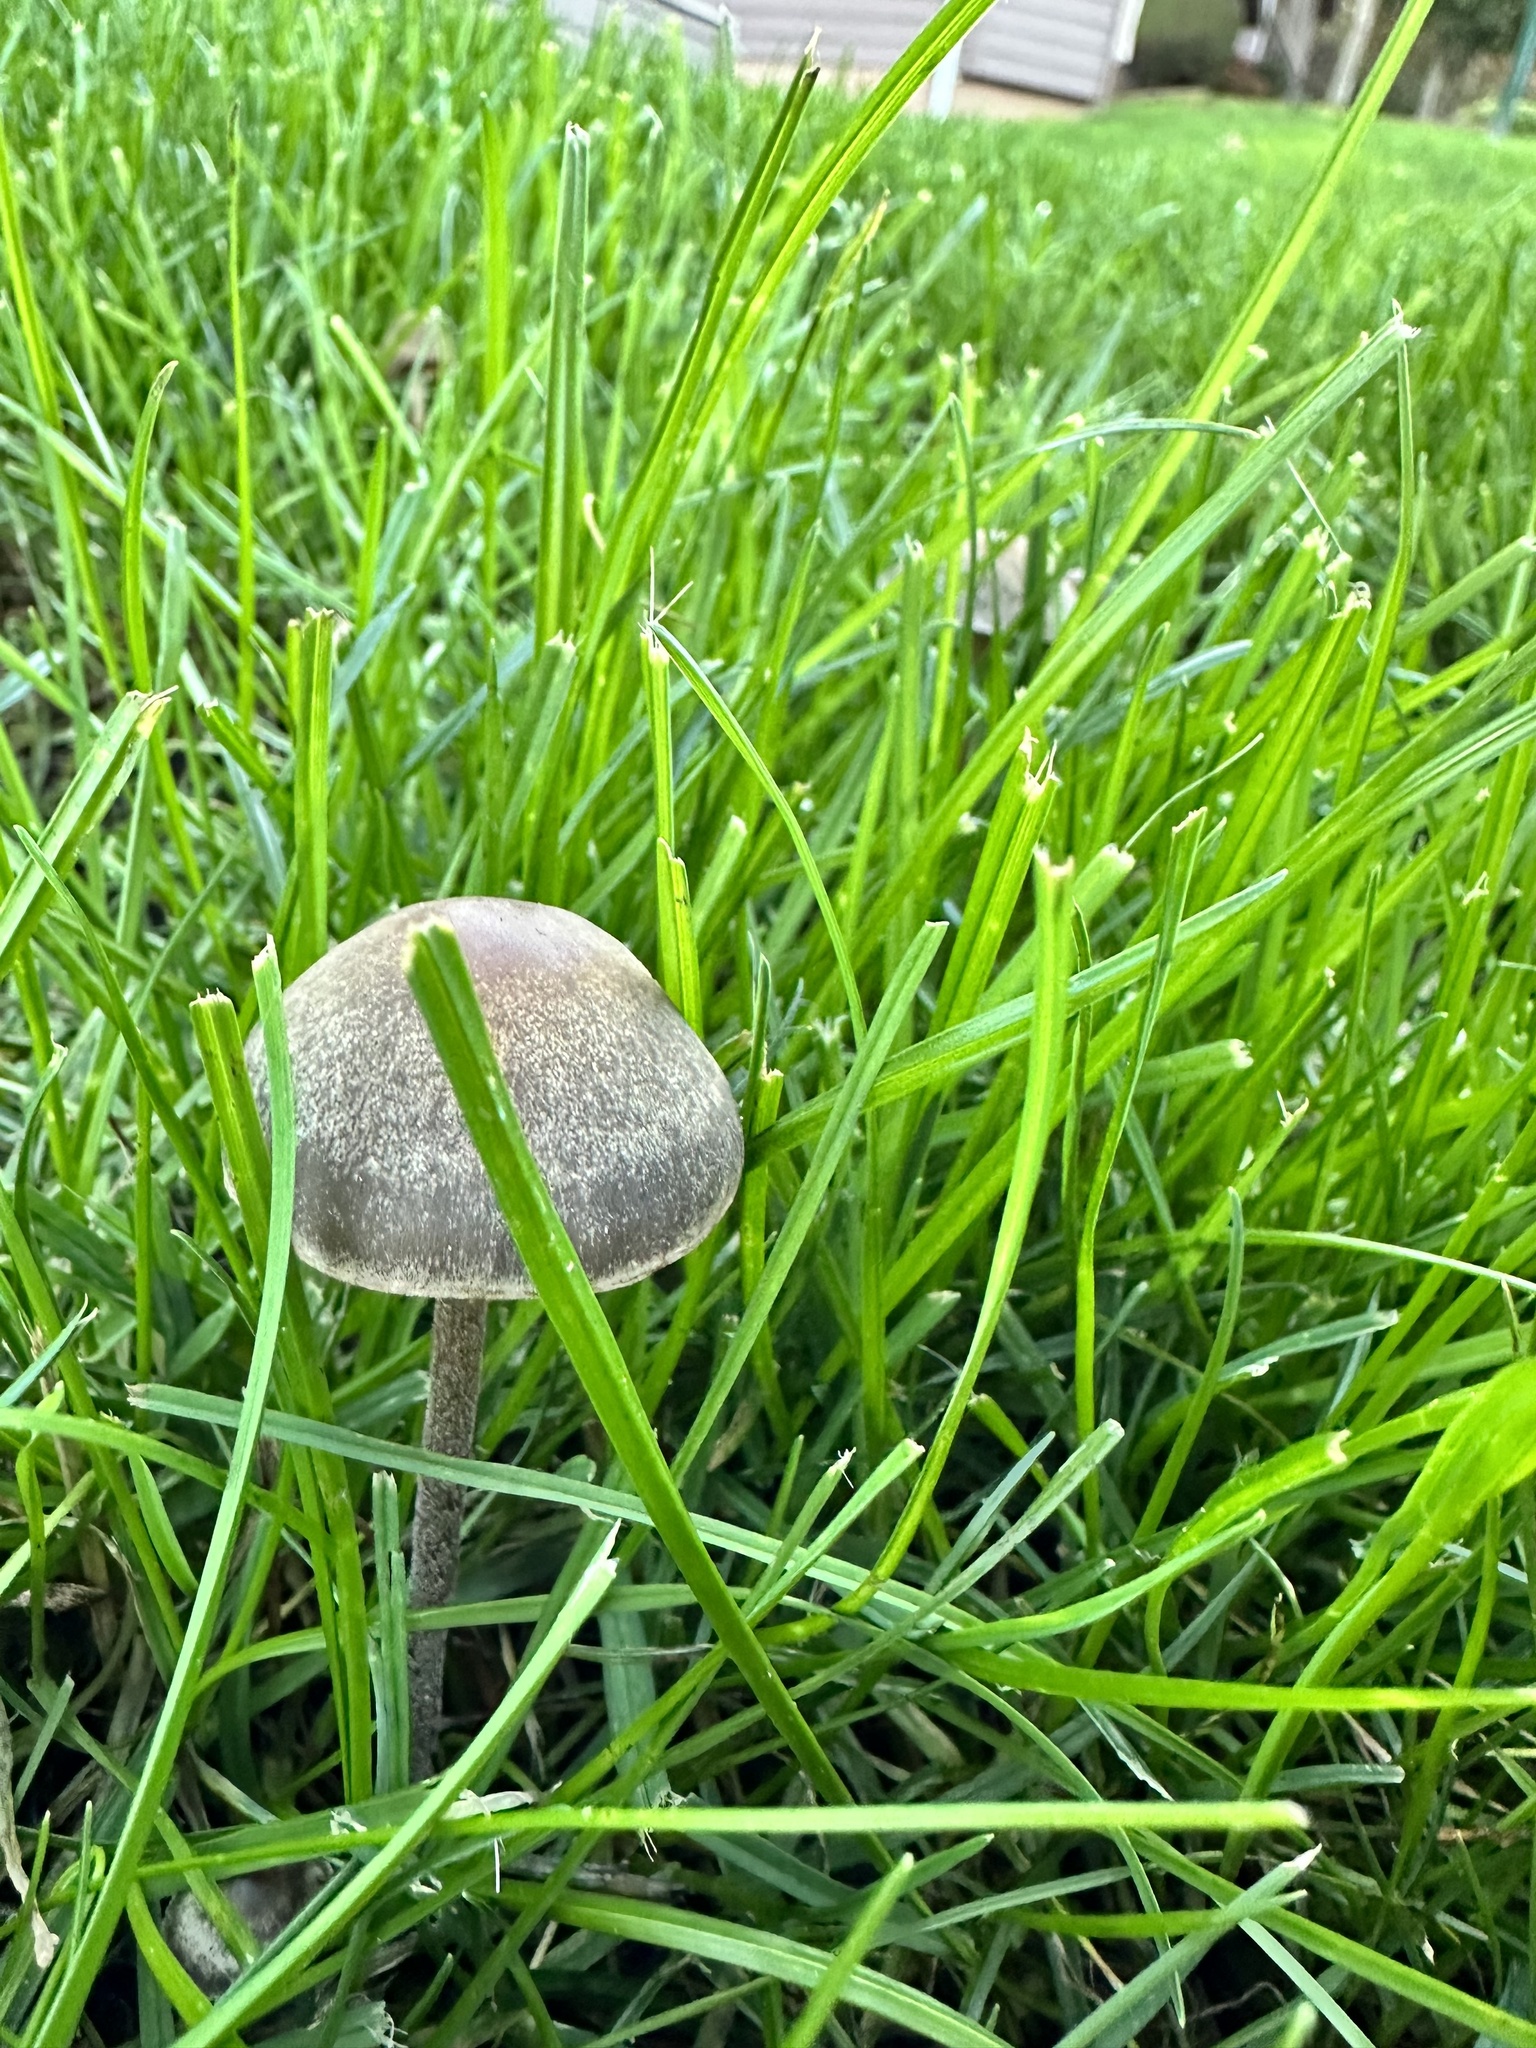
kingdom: Fungi
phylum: Basidiomycota
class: Agaricomycetes
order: Agaricales
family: Bolbitiaceae
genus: Panaeolus
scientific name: Panaeolus olivaceus
